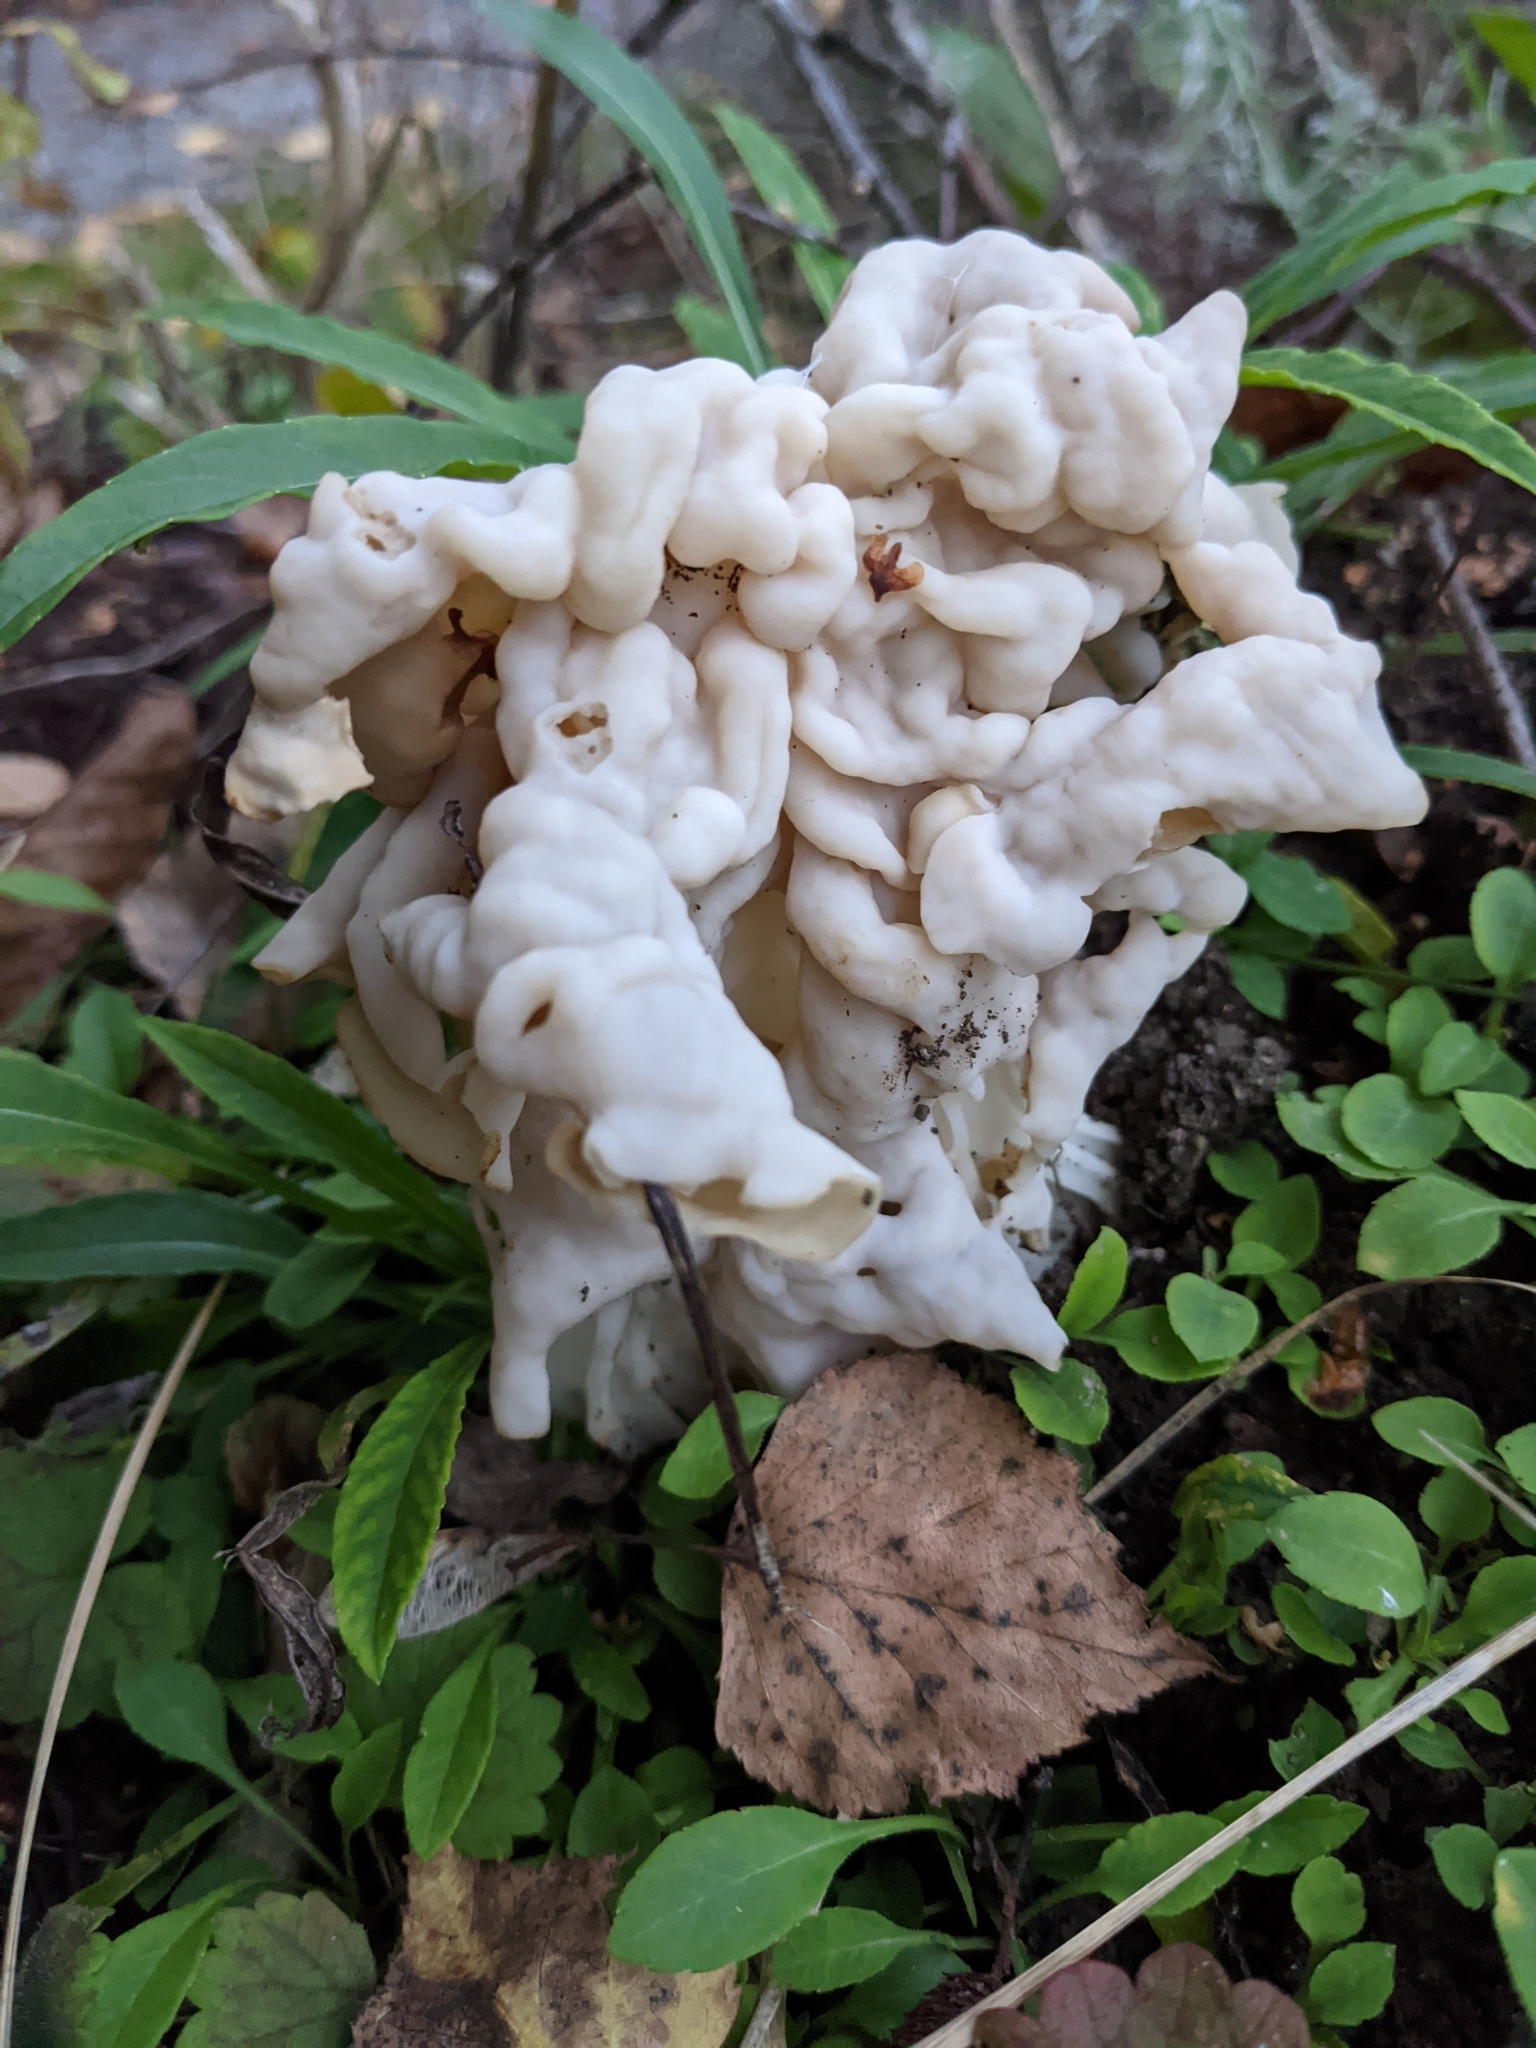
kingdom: Fungi
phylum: Ascomycota
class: Pezizomycetes
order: Pezizales
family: Helvellaceae
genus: Helvella
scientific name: Helvella crispa
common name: White saddle
